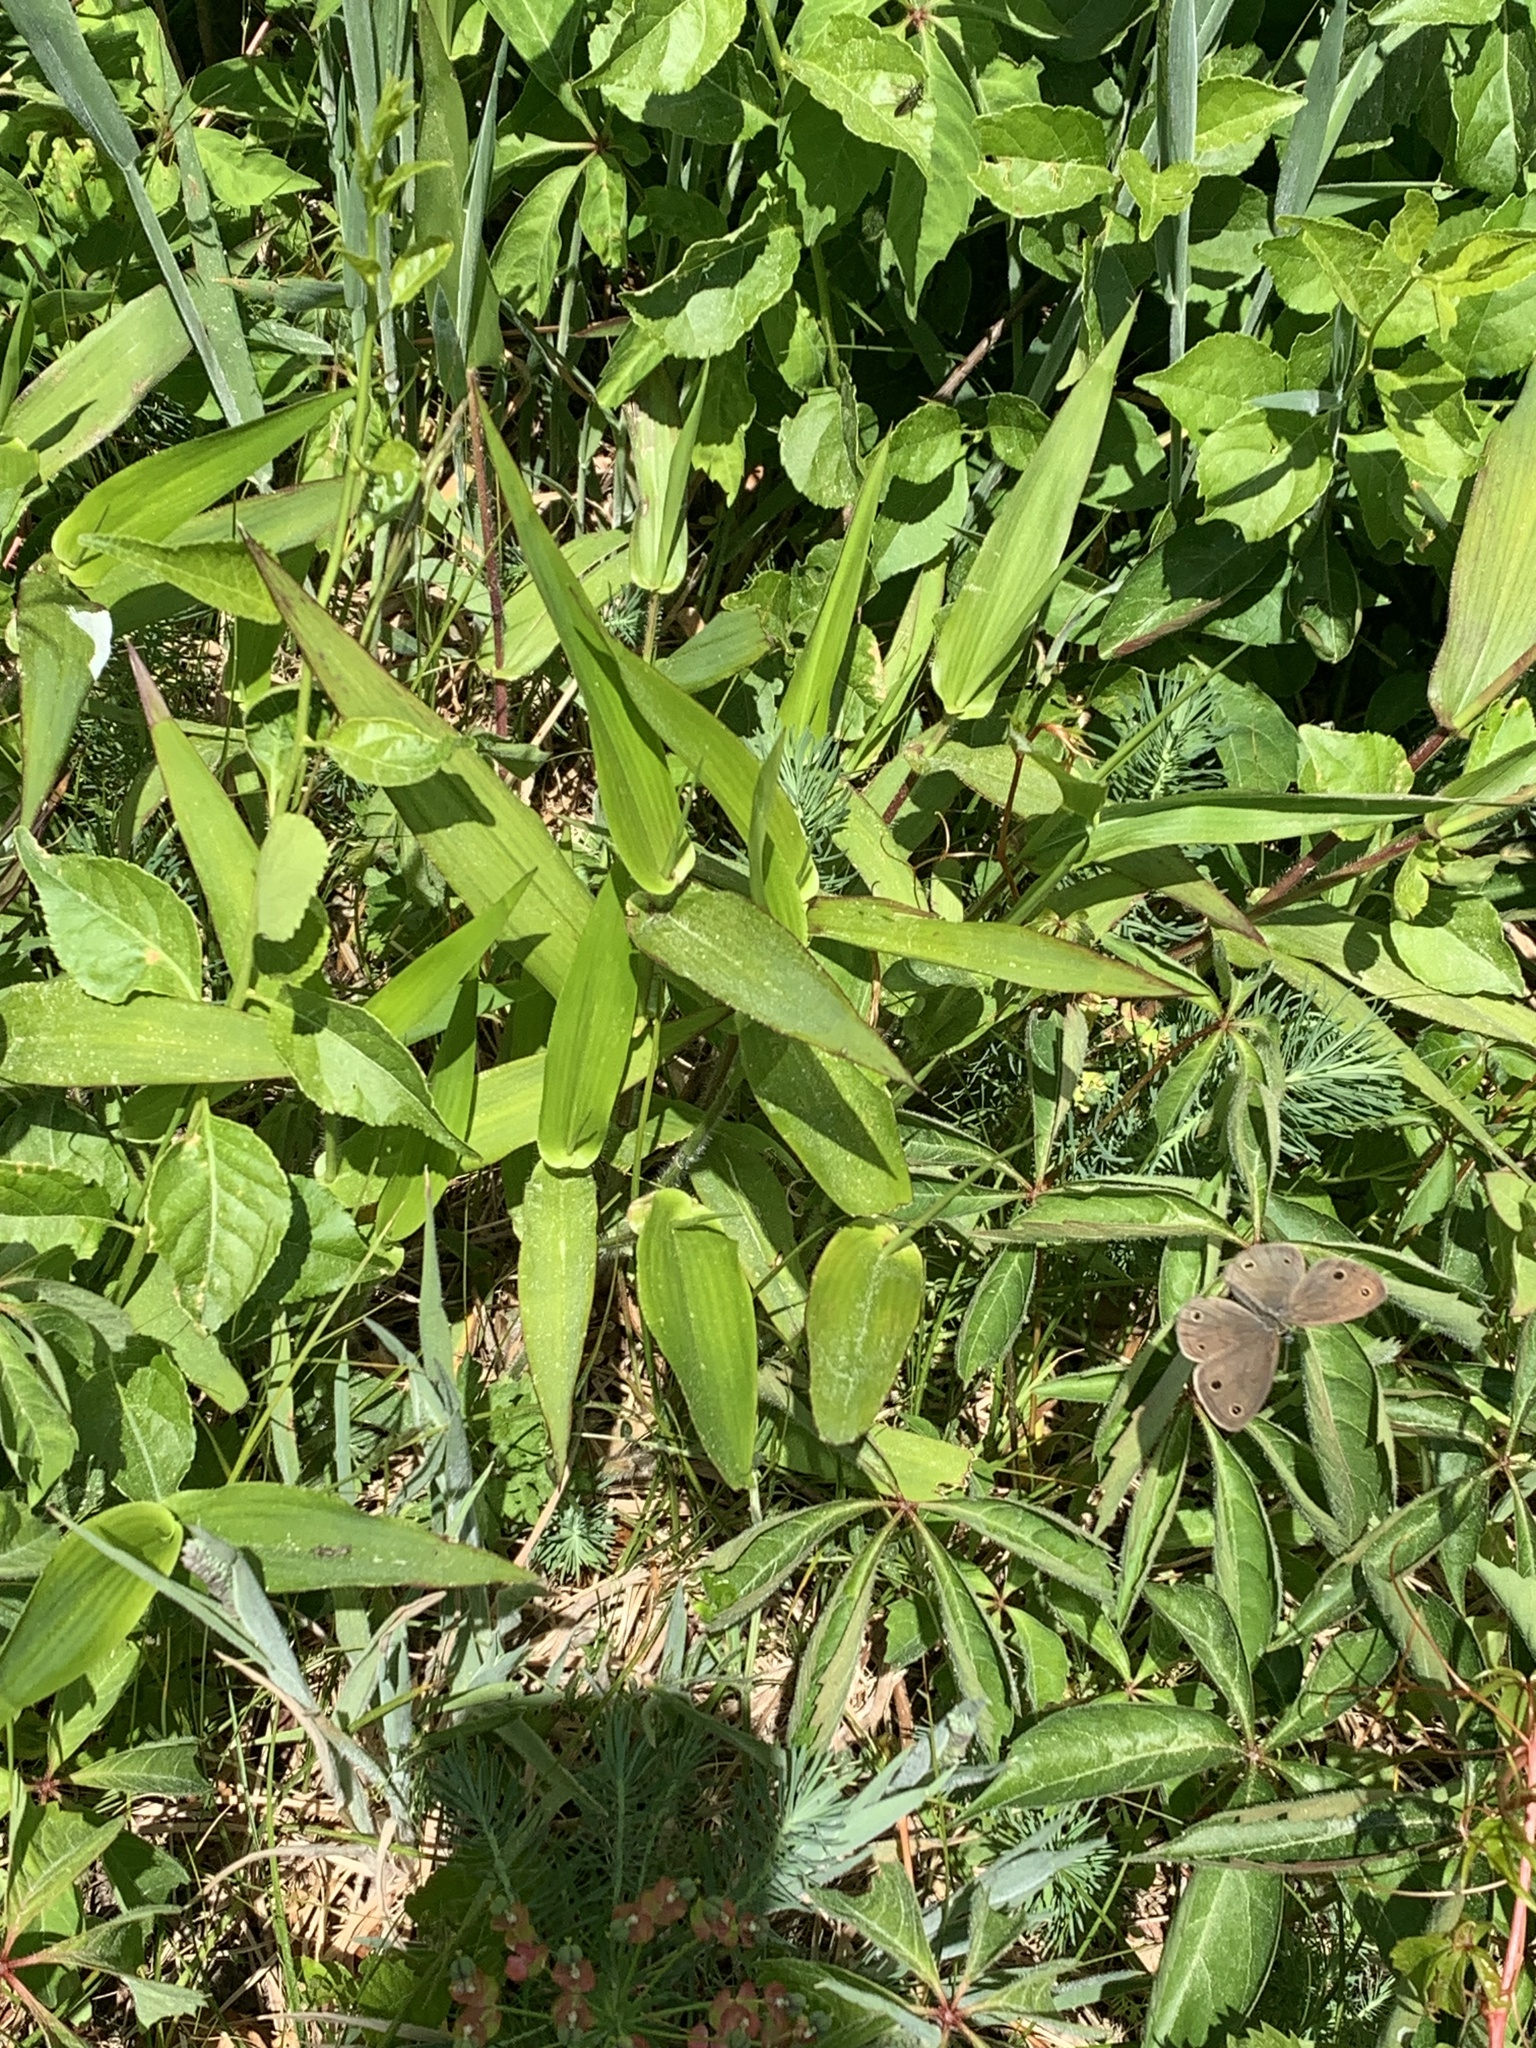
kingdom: Animalia
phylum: Arthropoda
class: Insecta
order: Lepidoptera
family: Nymphalidae
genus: Euptychia
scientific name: Euptychia cymela
